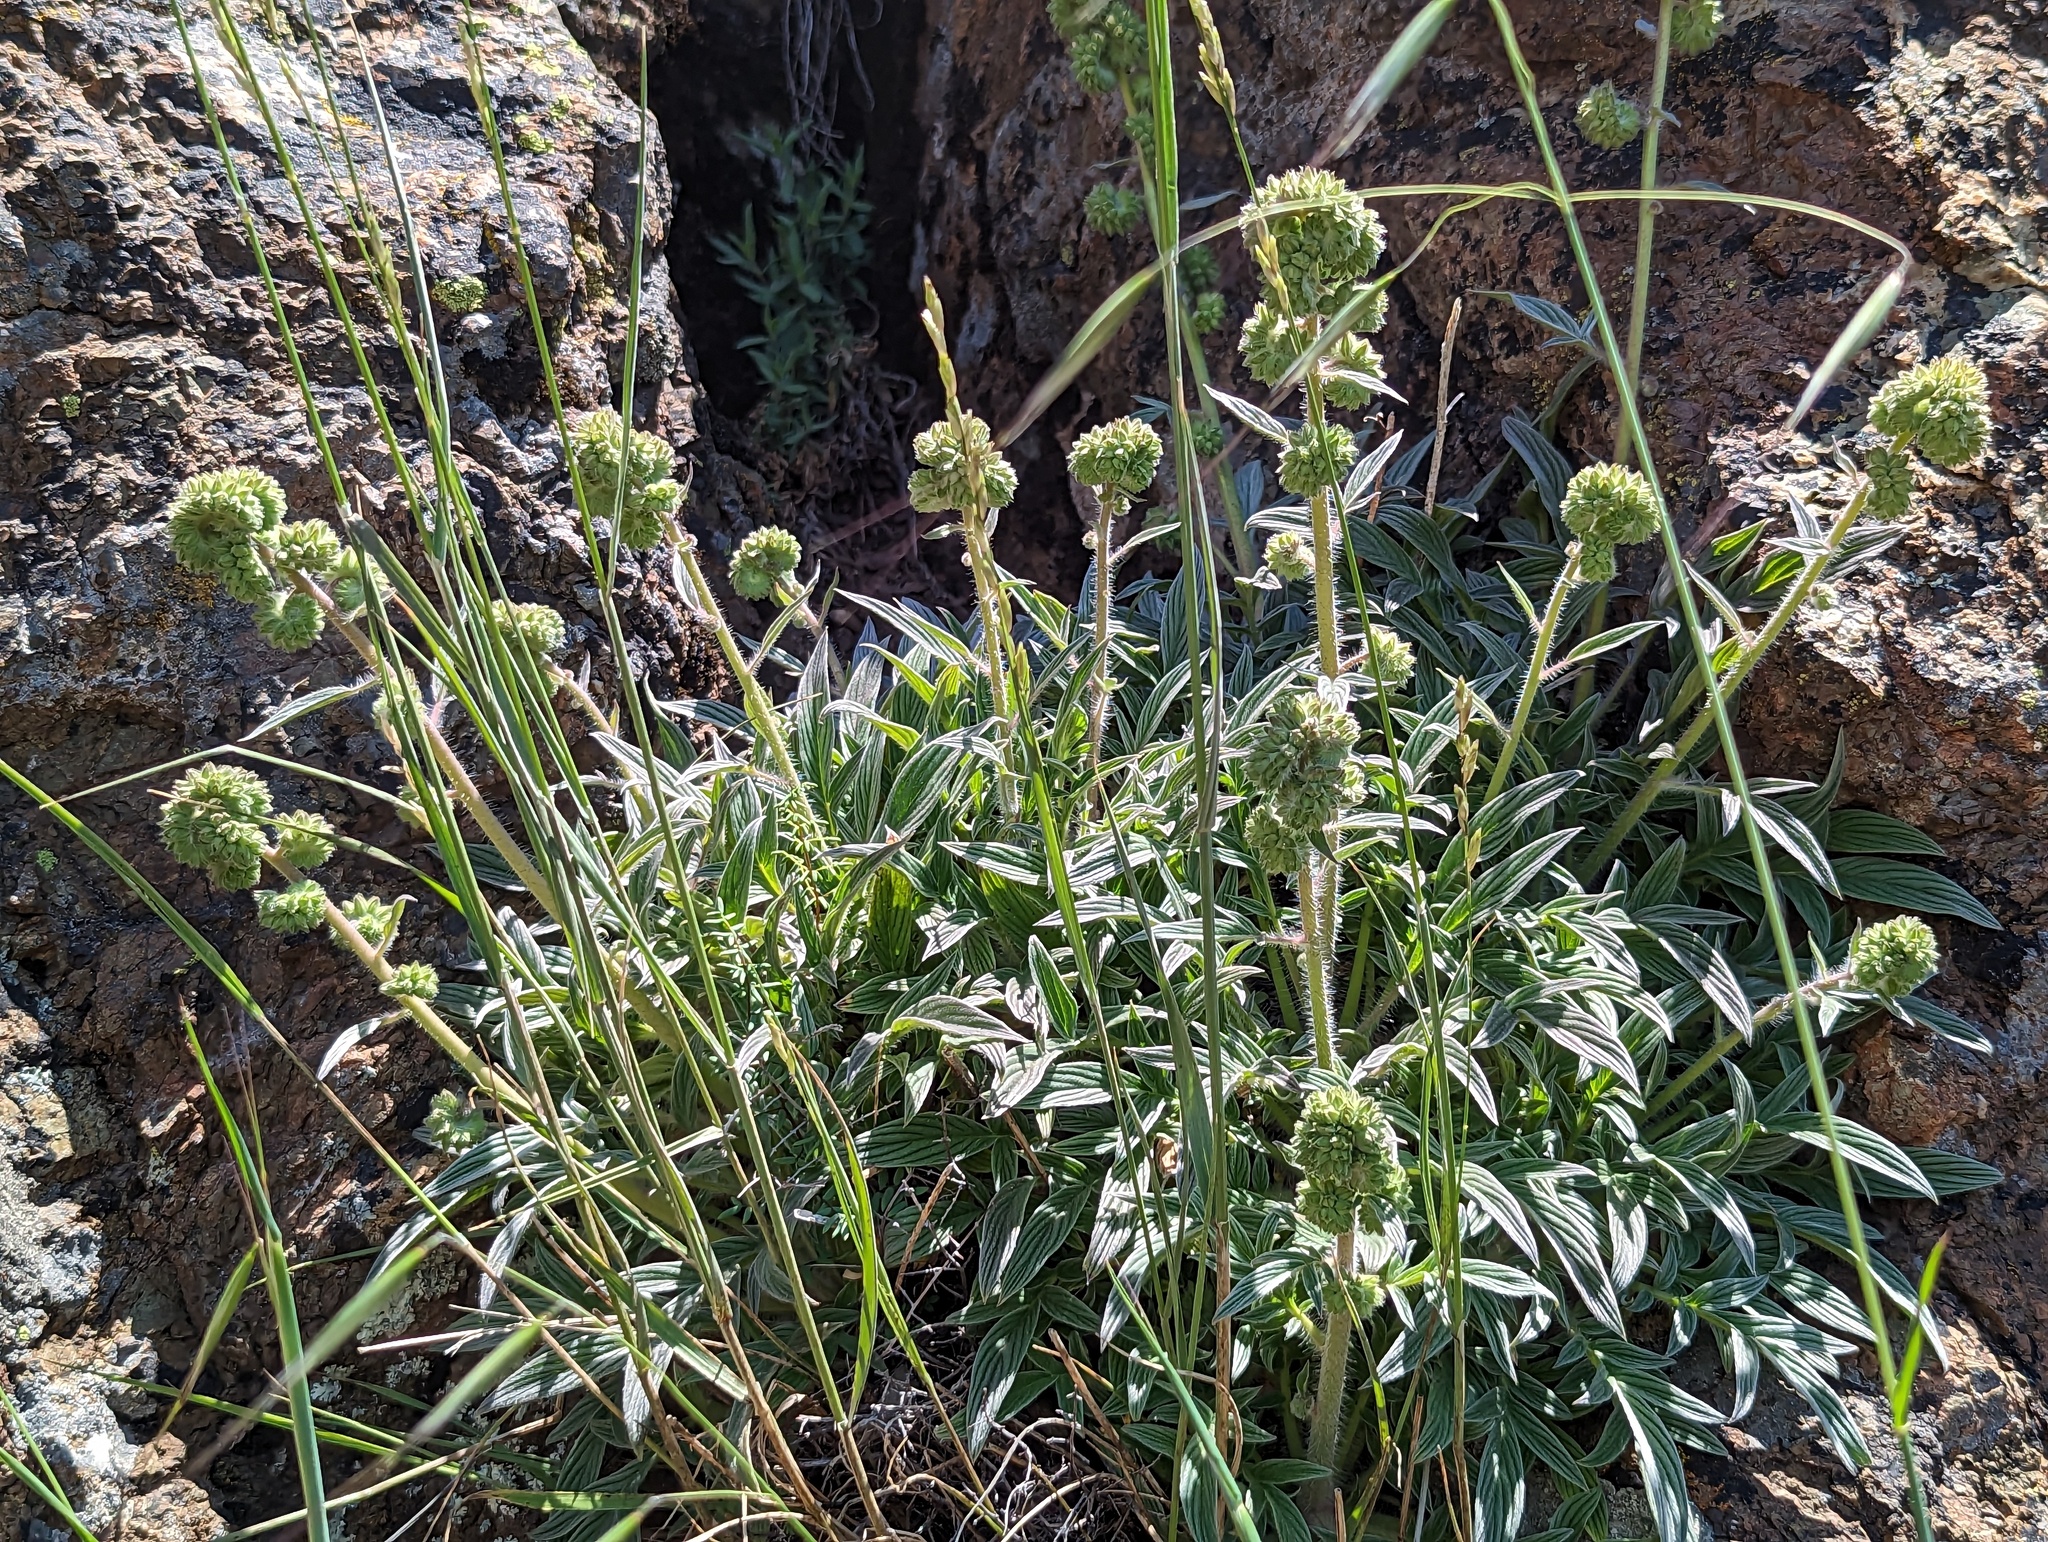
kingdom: Plantae
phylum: Tracheophyta
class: Magnoliopsida
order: Boraginales
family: Hydrophyllaceae
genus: Phacelia
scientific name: Phacelia imbricata
